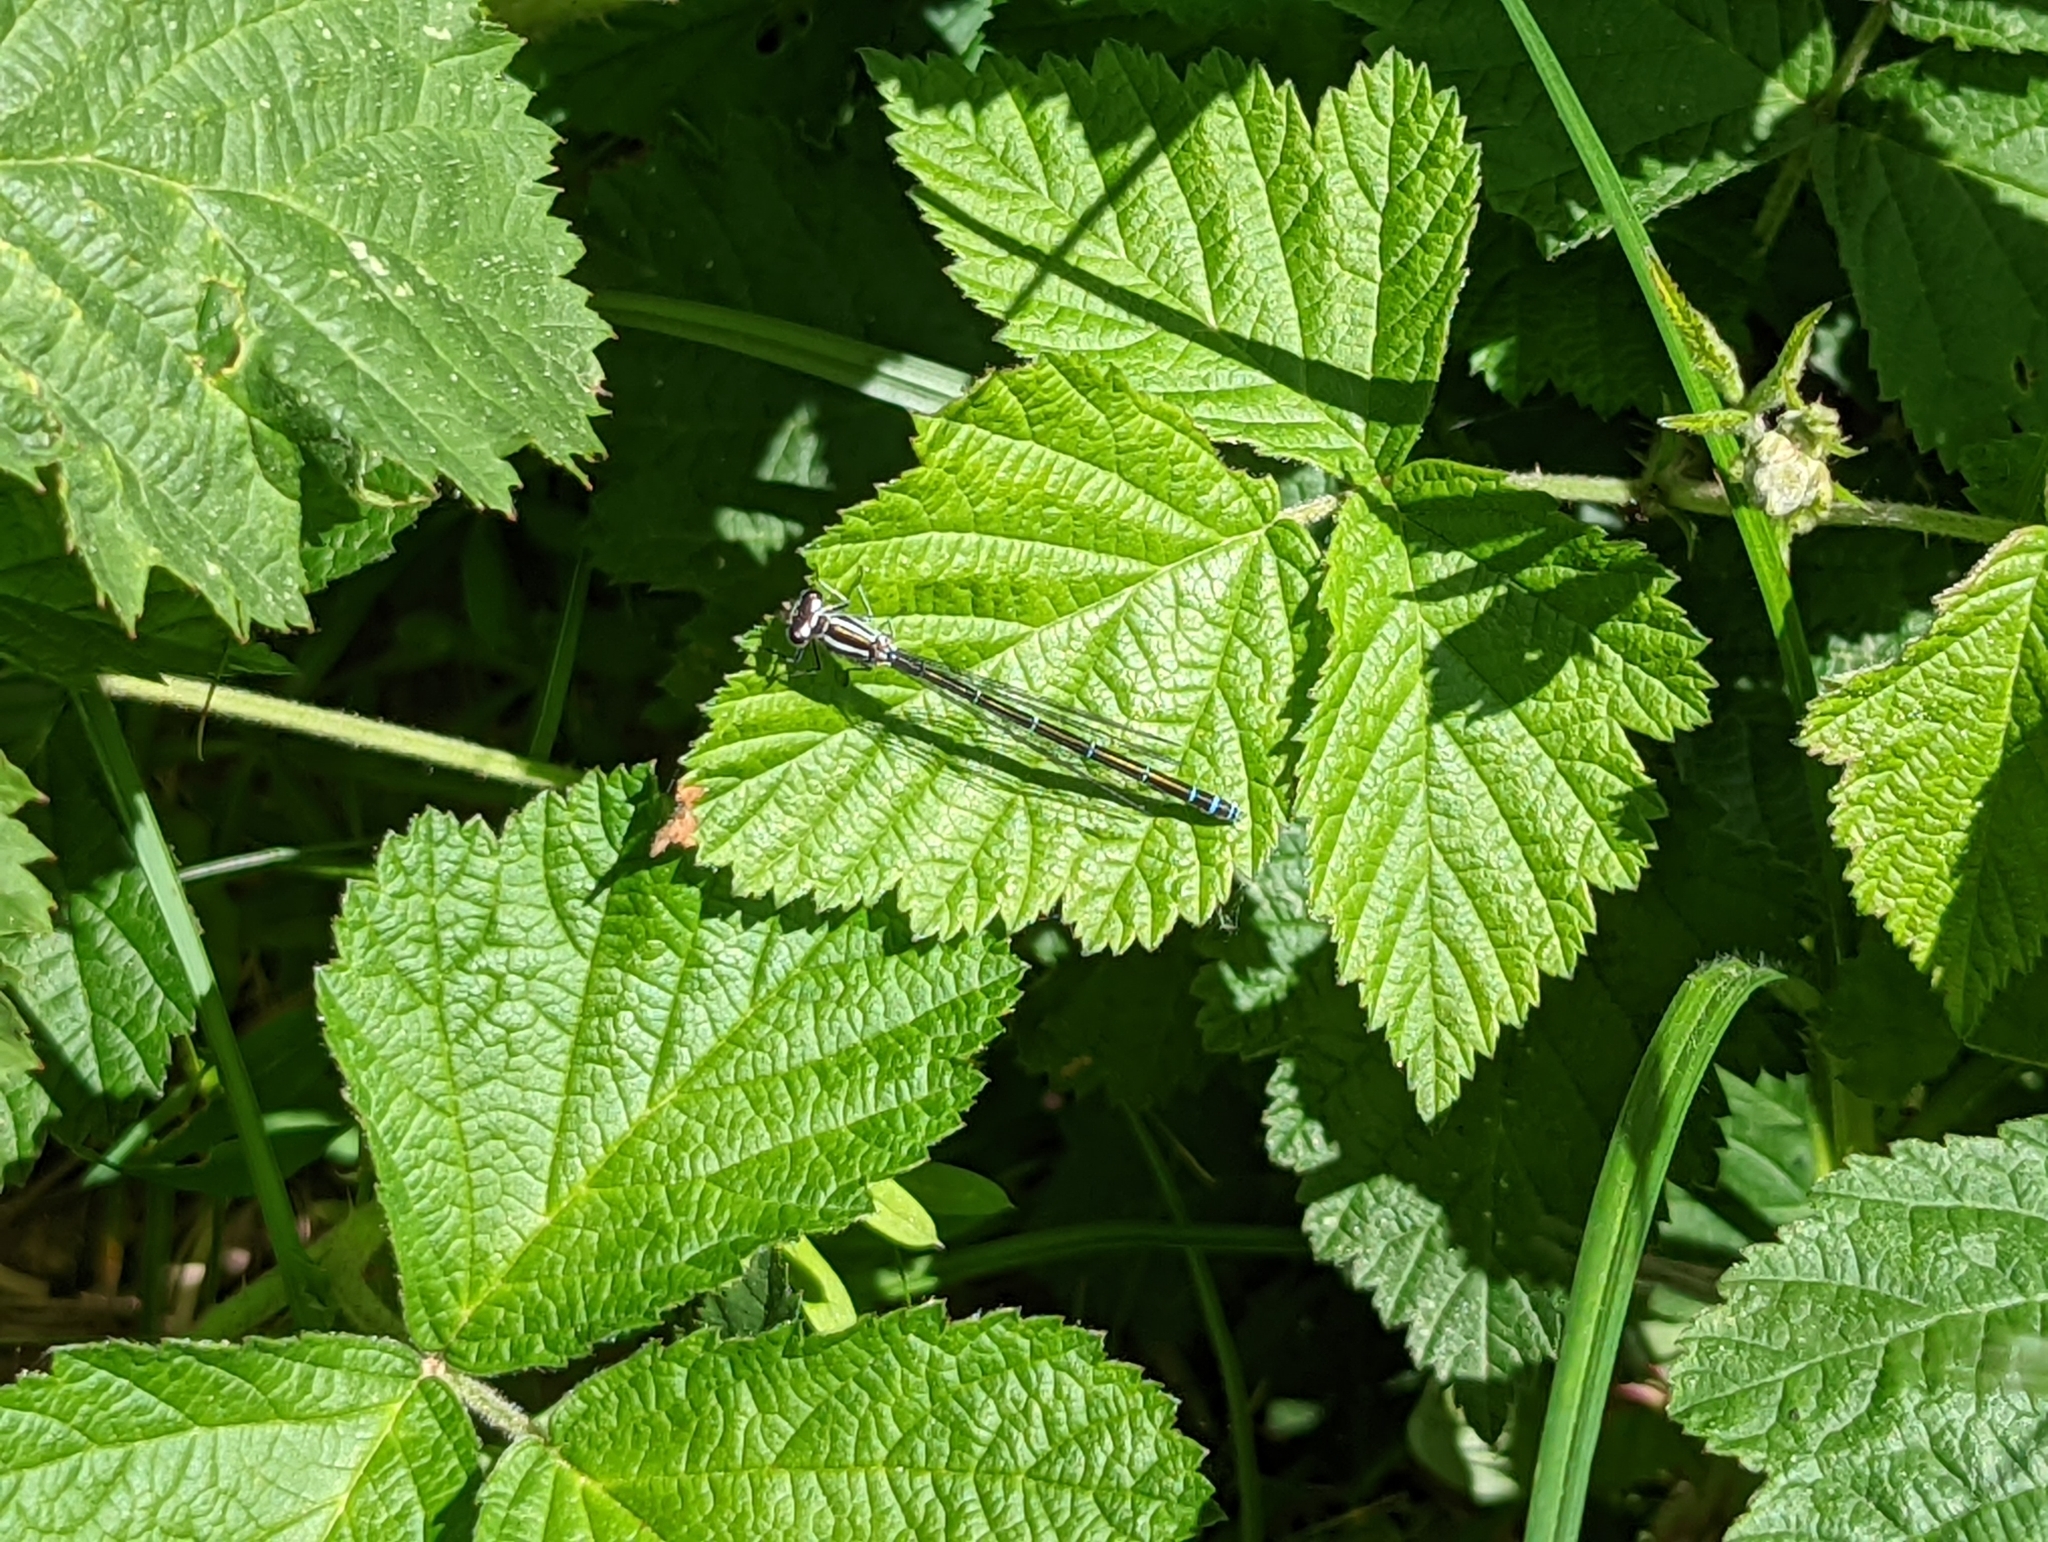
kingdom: Animalia
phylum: Arthropoda
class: Insecta
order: Odonata
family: Coenagrionidae
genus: Coenagrion
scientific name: Coenagrion puella
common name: Azure damselfly
